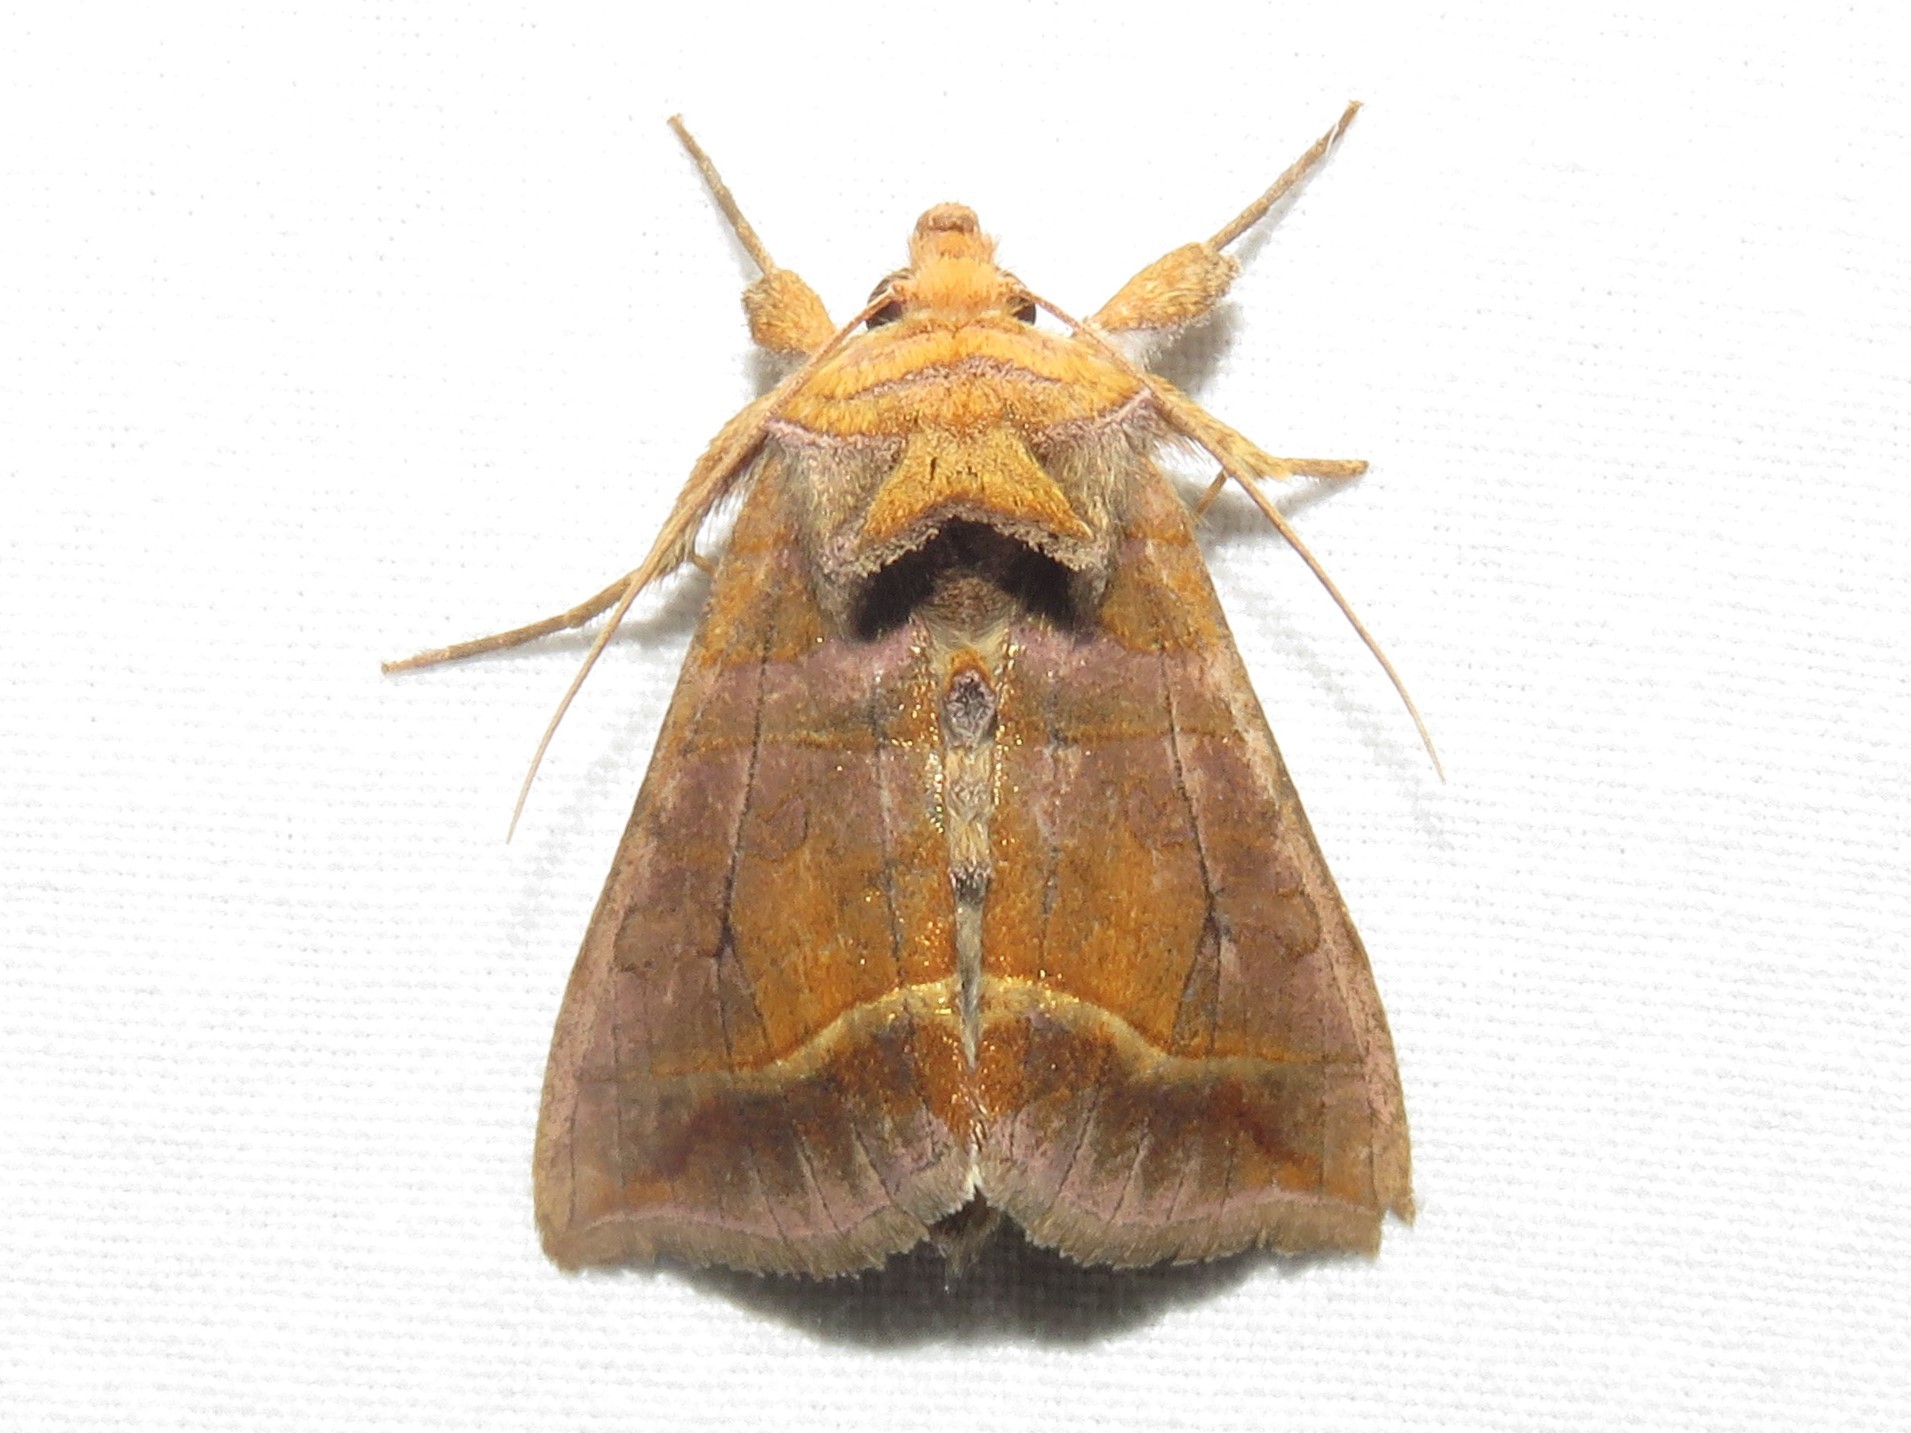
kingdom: Animalia
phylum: Arthropoda
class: Insecta
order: Lepidoptera
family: Noctuidae
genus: Diachrysia
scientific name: Diachrysia aereoides
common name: Dark-spotted looper moth
